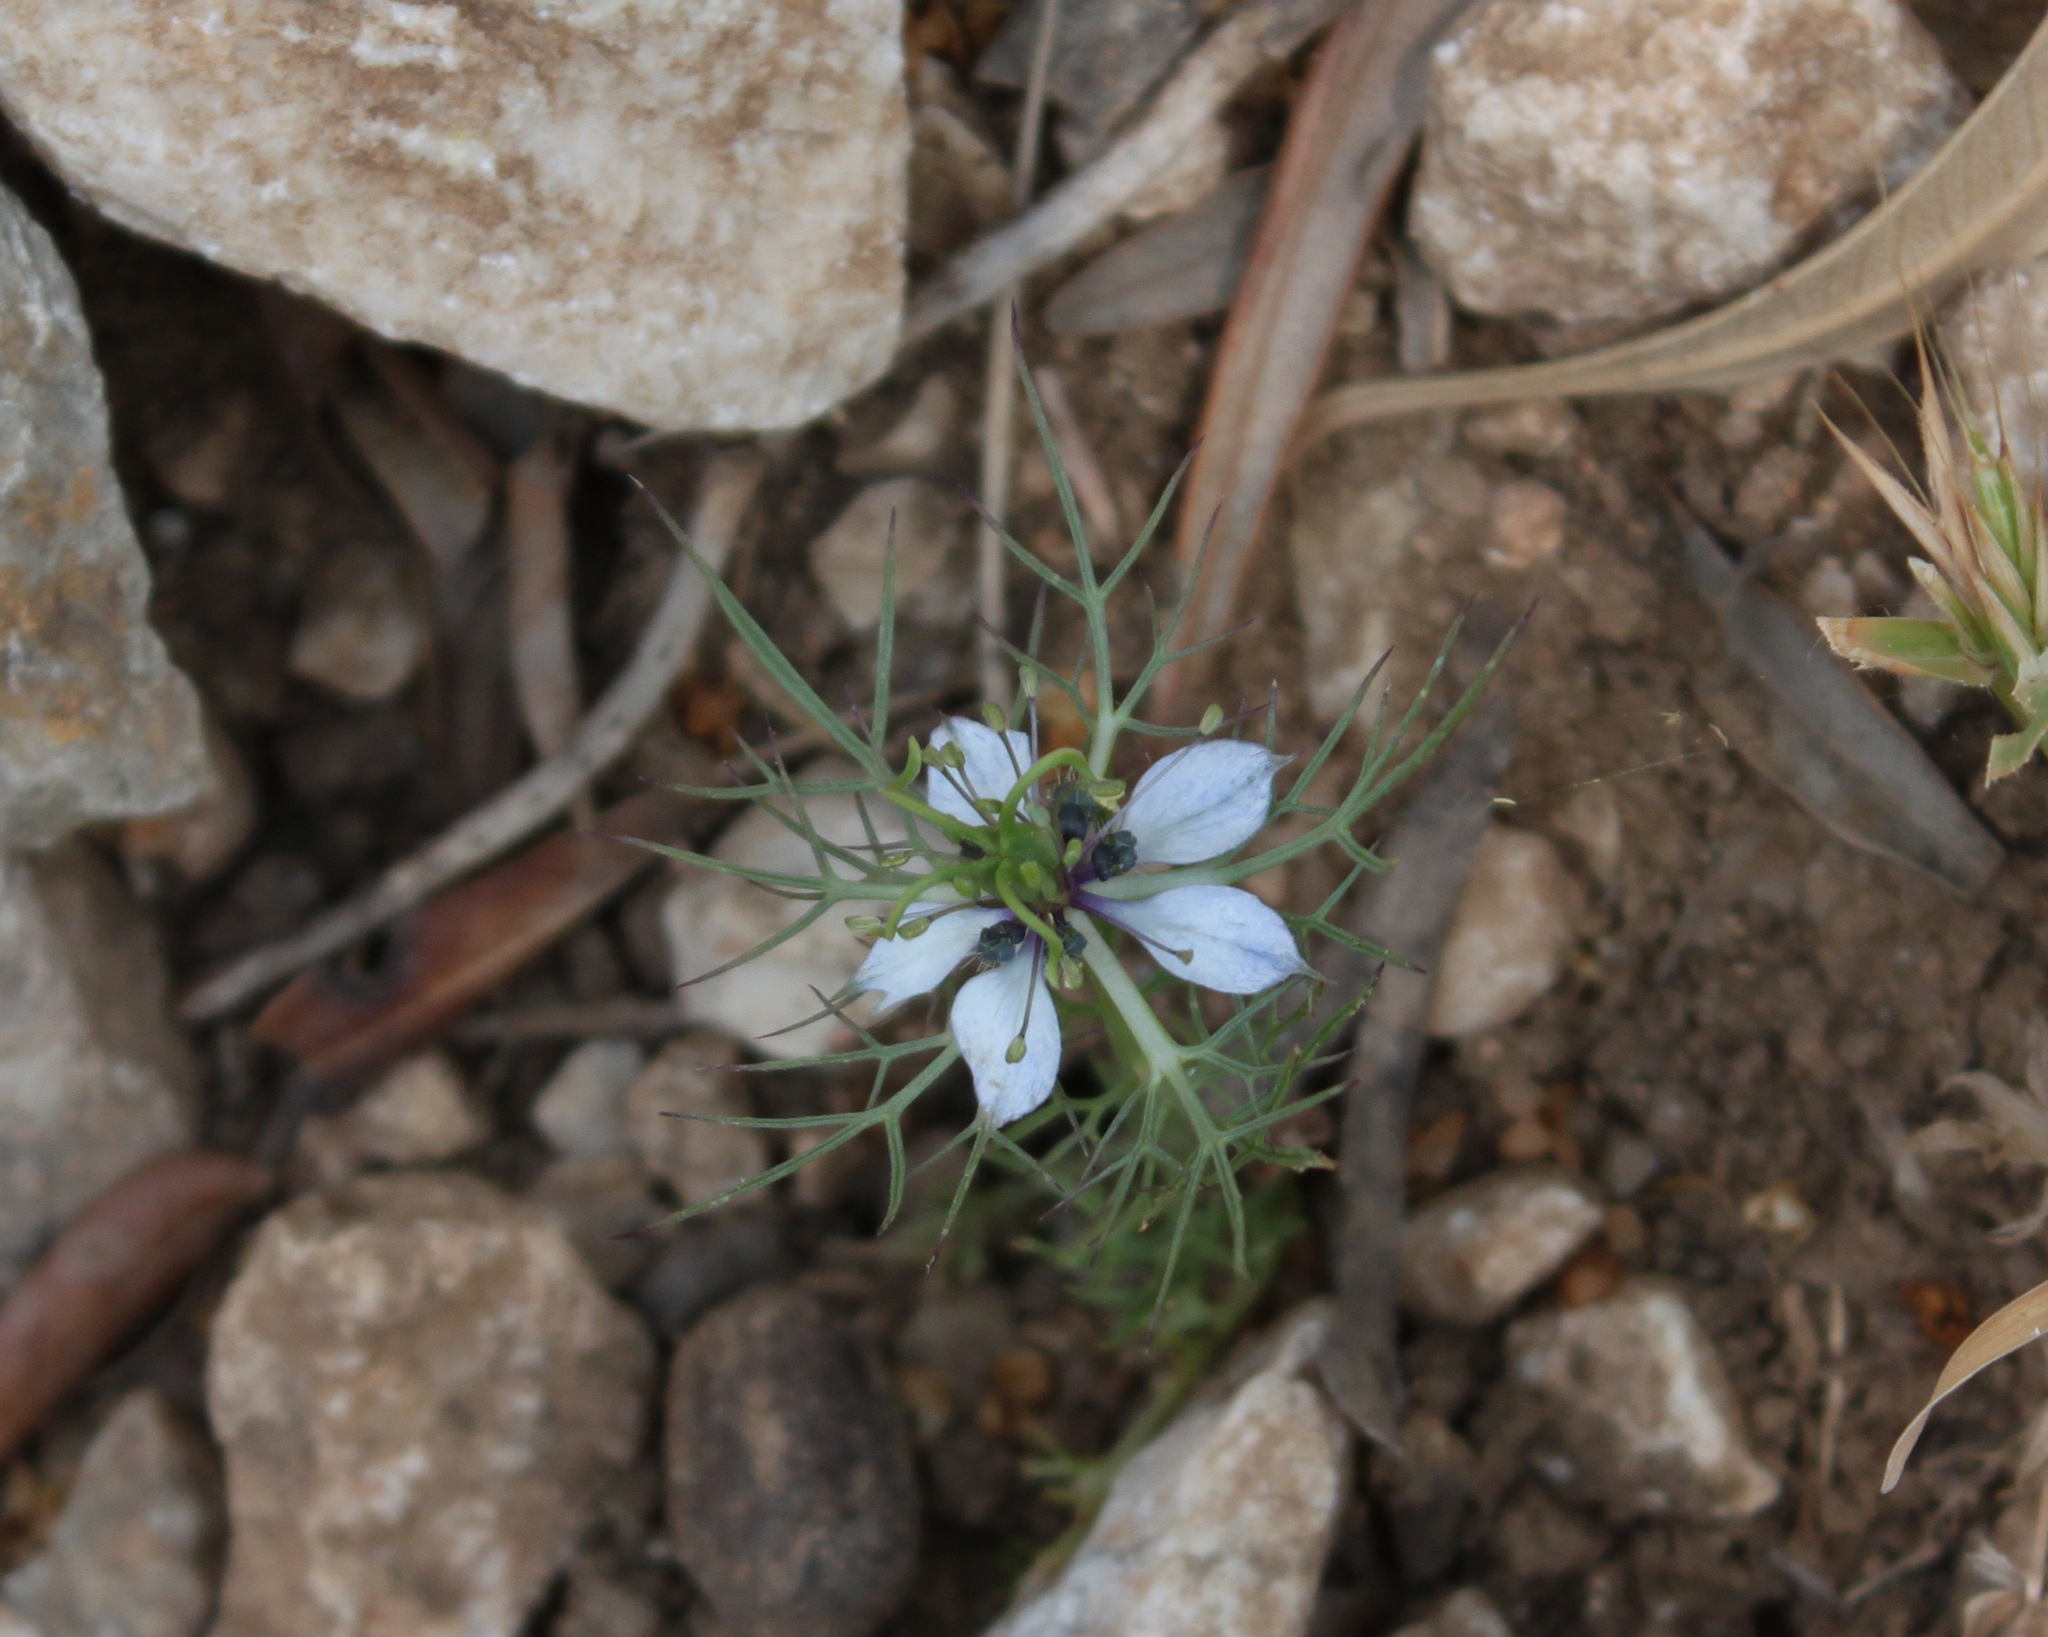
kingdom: Plantae
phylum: Tracheophyta
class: Magnoliopsida
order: Ranunculales
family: Ranunculaceae
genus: Nigella
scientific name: Nigella damascena
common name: Love-in-a-mist
